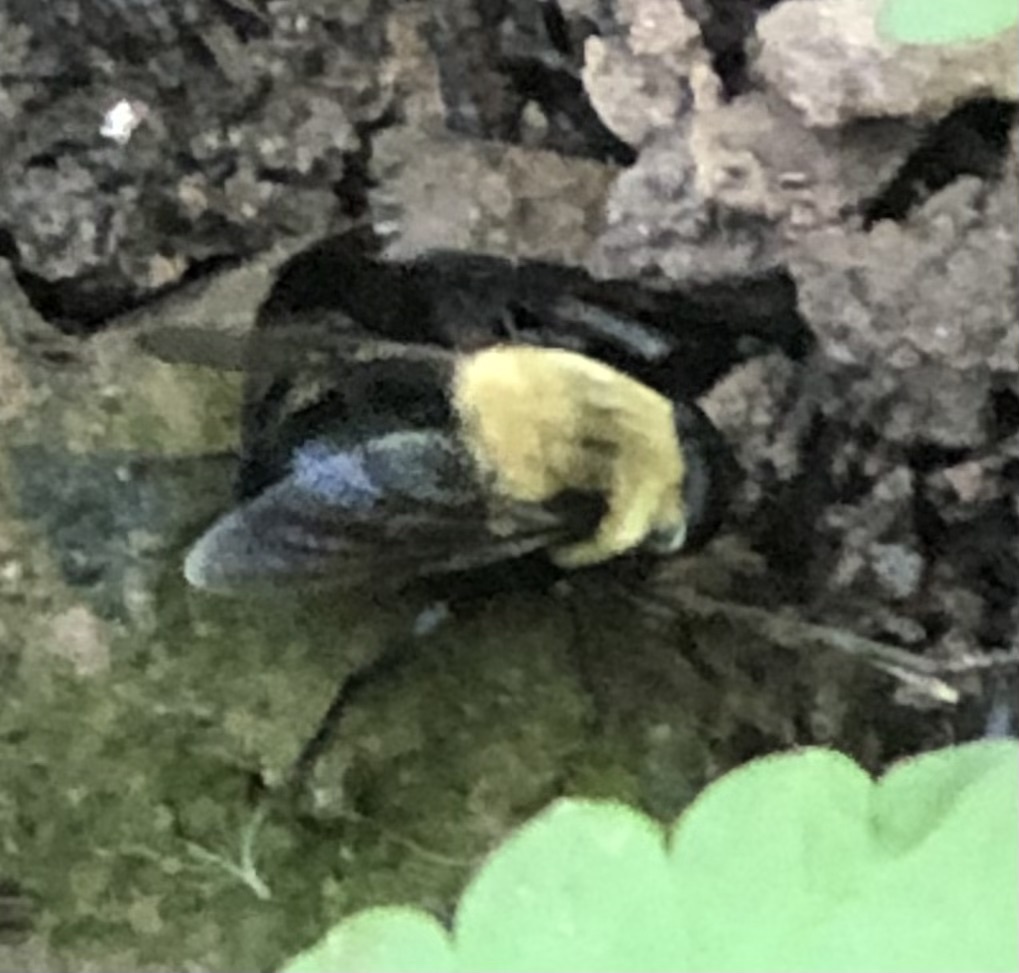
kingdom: Animalia
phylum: Arthropoda
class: Insecta
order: Diptera
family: Syrphidae
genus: Imatisma
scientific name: Imatisma bautias
